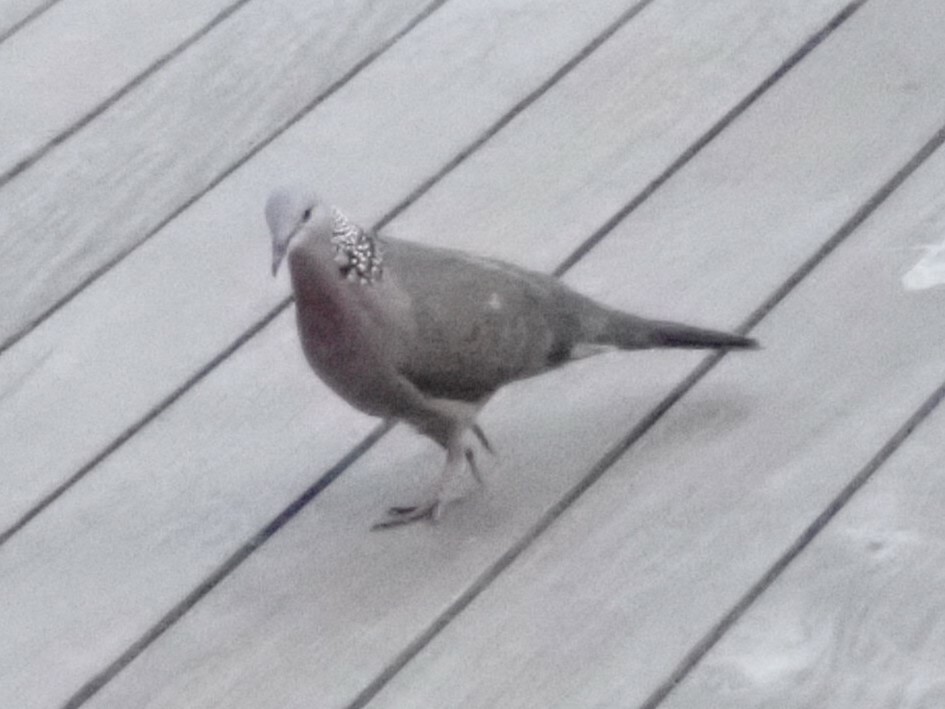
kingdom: Animalia
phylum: Chordata
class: Aves
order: Columbiformes
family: Columbidae
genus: Spilopelia
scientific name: Spilopelia chinensis
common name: Spotted dove
